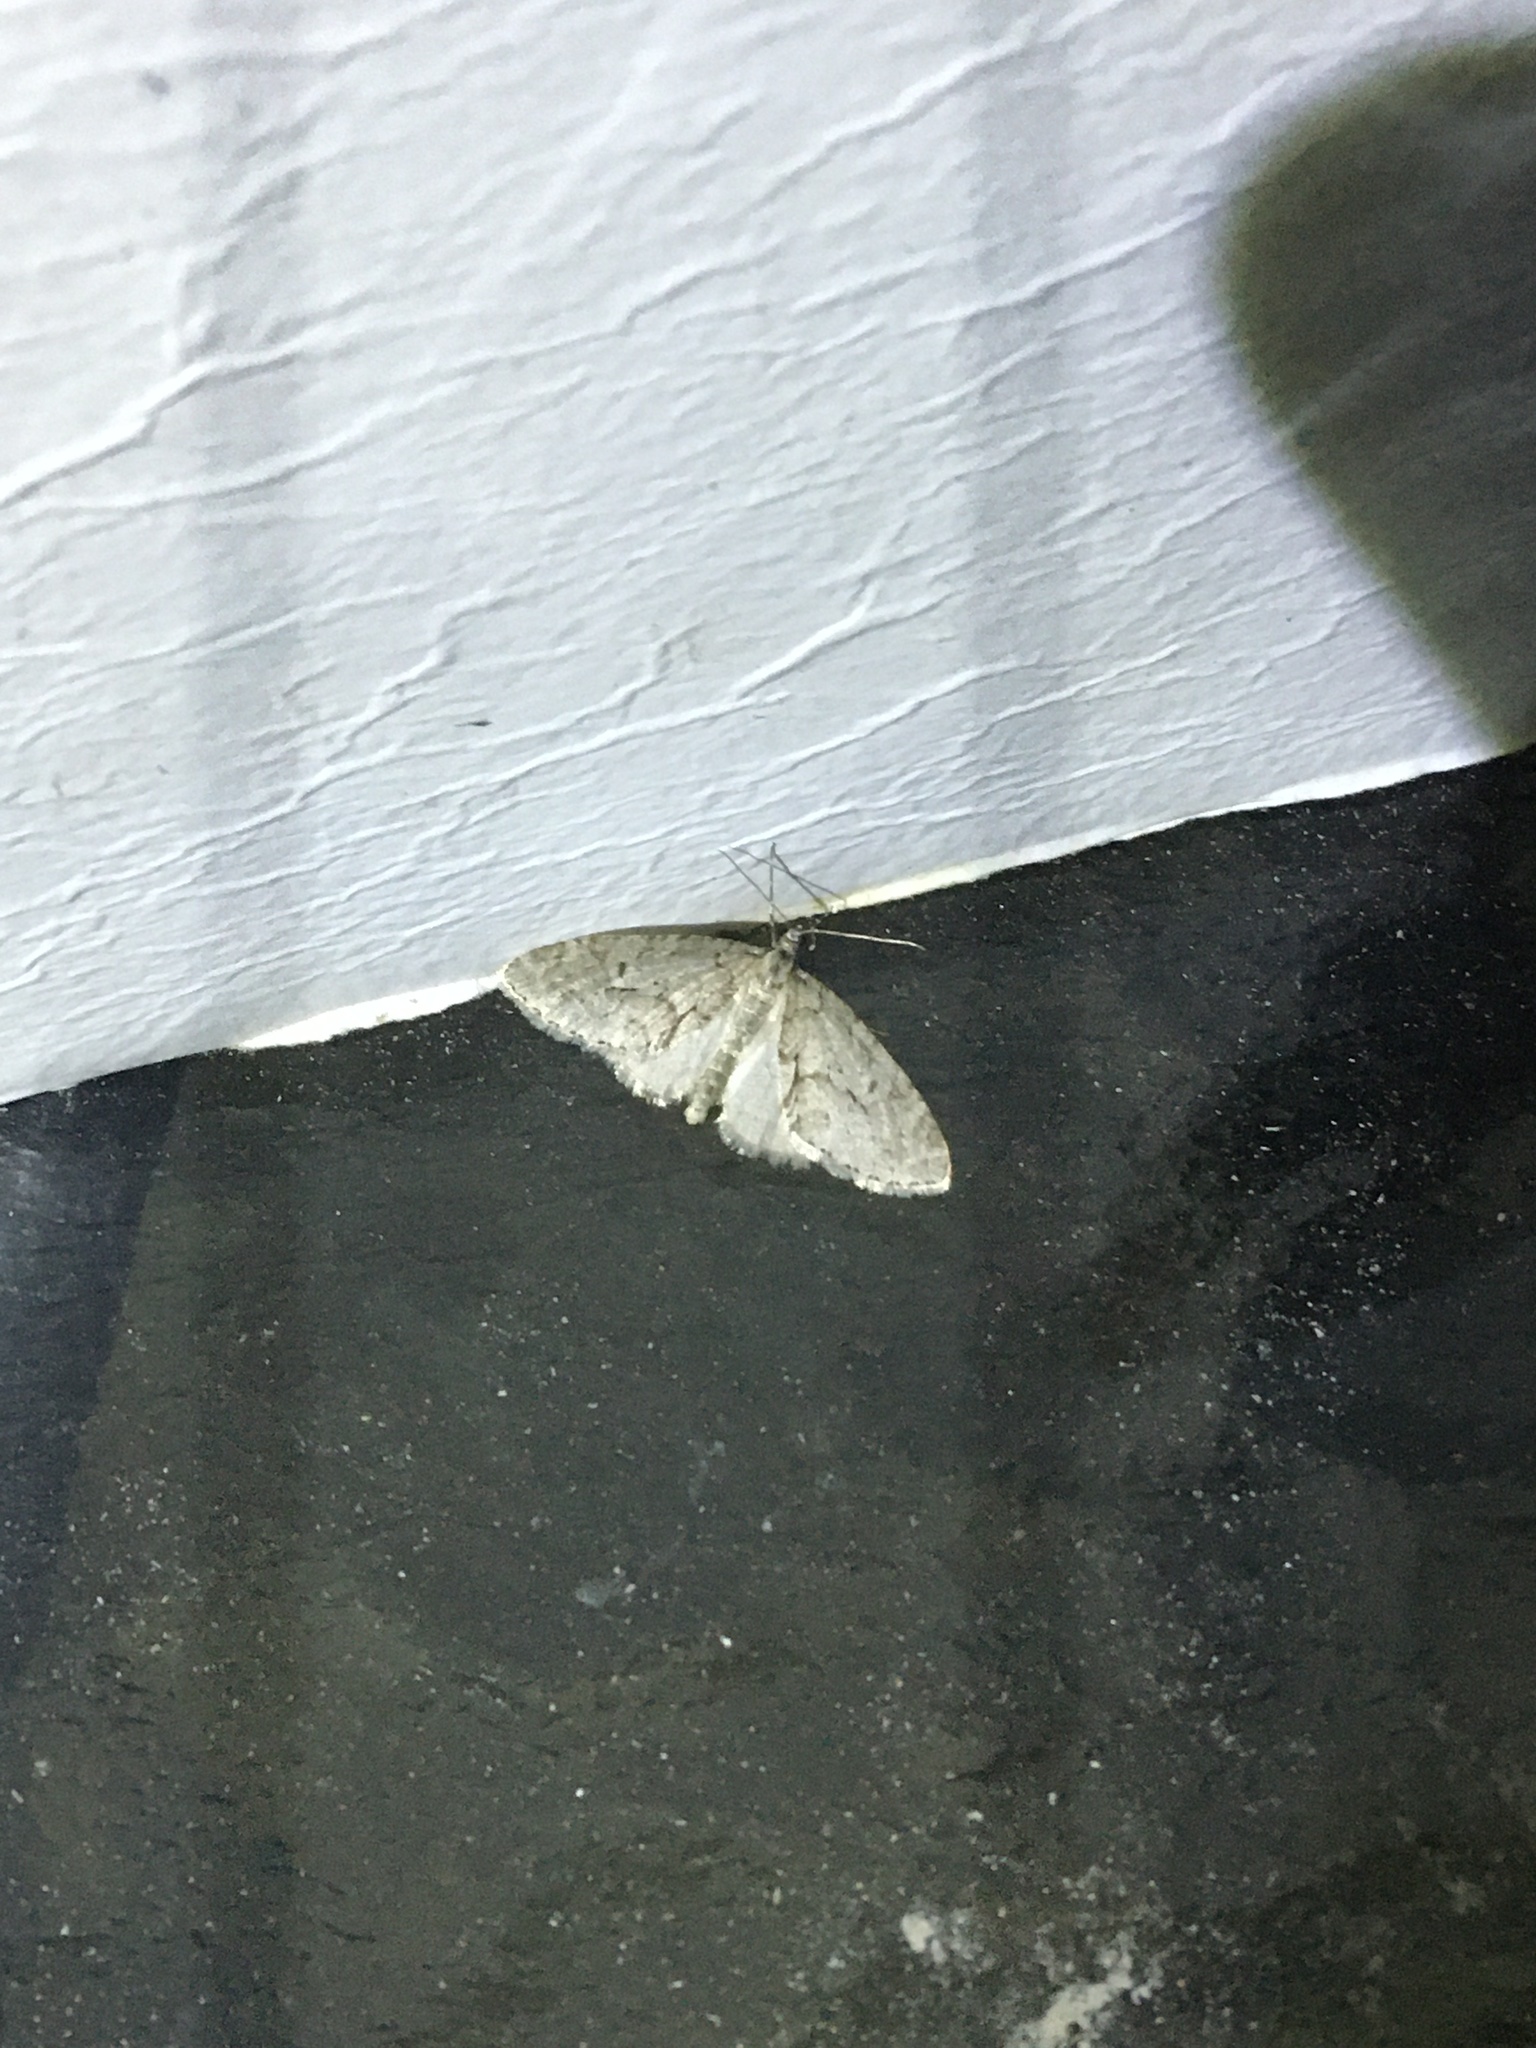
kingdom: Animalia
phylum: Arthropoda
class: Insecta
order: Lepidoptera
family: Geometridae
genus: Cladara
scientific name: Cladara limitaria
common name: Mottled gray carpet
